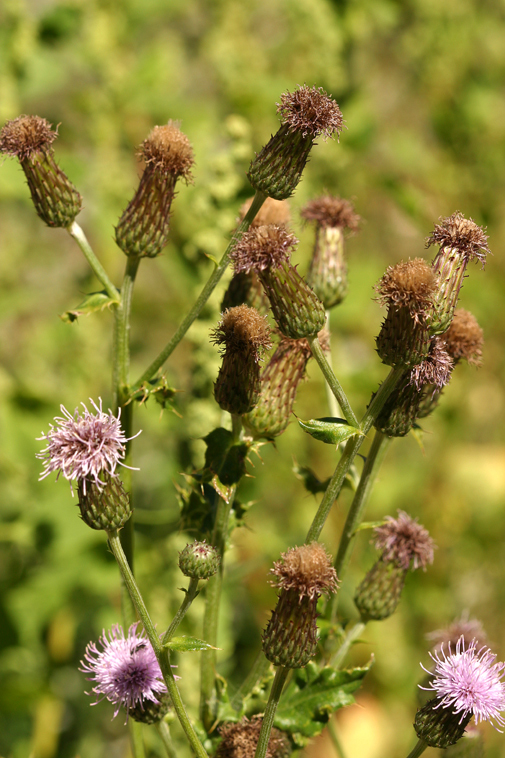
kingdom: Plantae
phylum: Tracheophyta
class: Magnoliopsida
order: Asterales
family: Asteraceae
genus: Cirsium
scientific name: Cirsium arvense
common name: Creeping thistle
